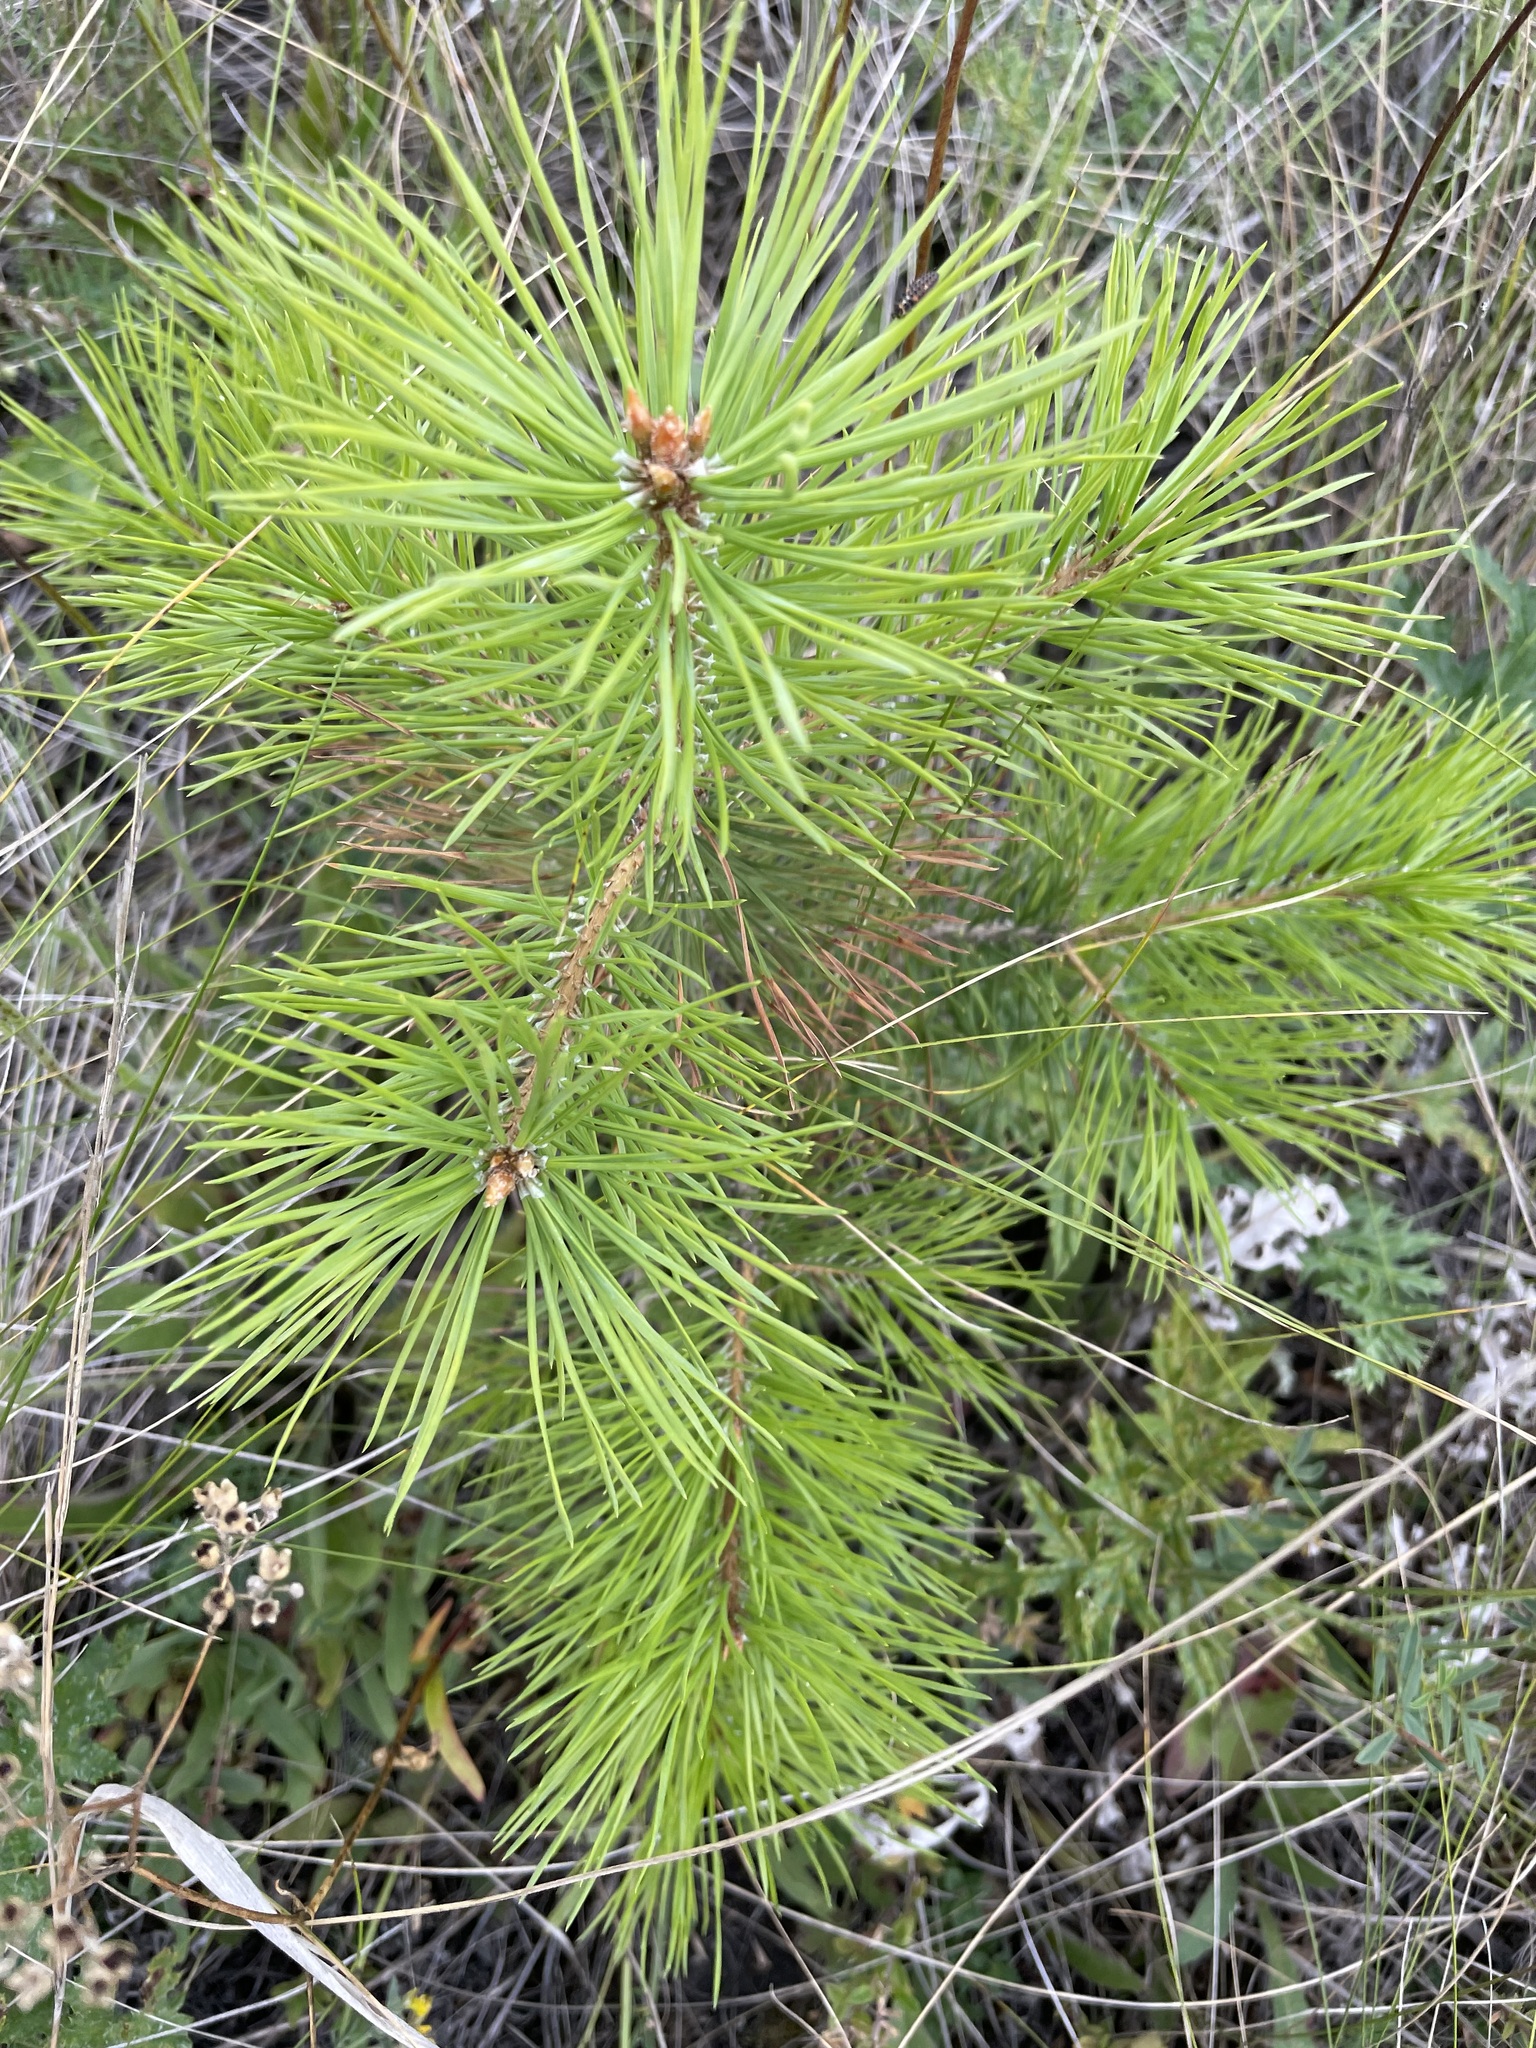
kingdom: Plantae
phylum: Tracheophyta
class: Pinopsida
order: Pinales
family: Pinaceae
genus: Pinus
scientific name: Pinus sylvestris
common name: Scots pine
